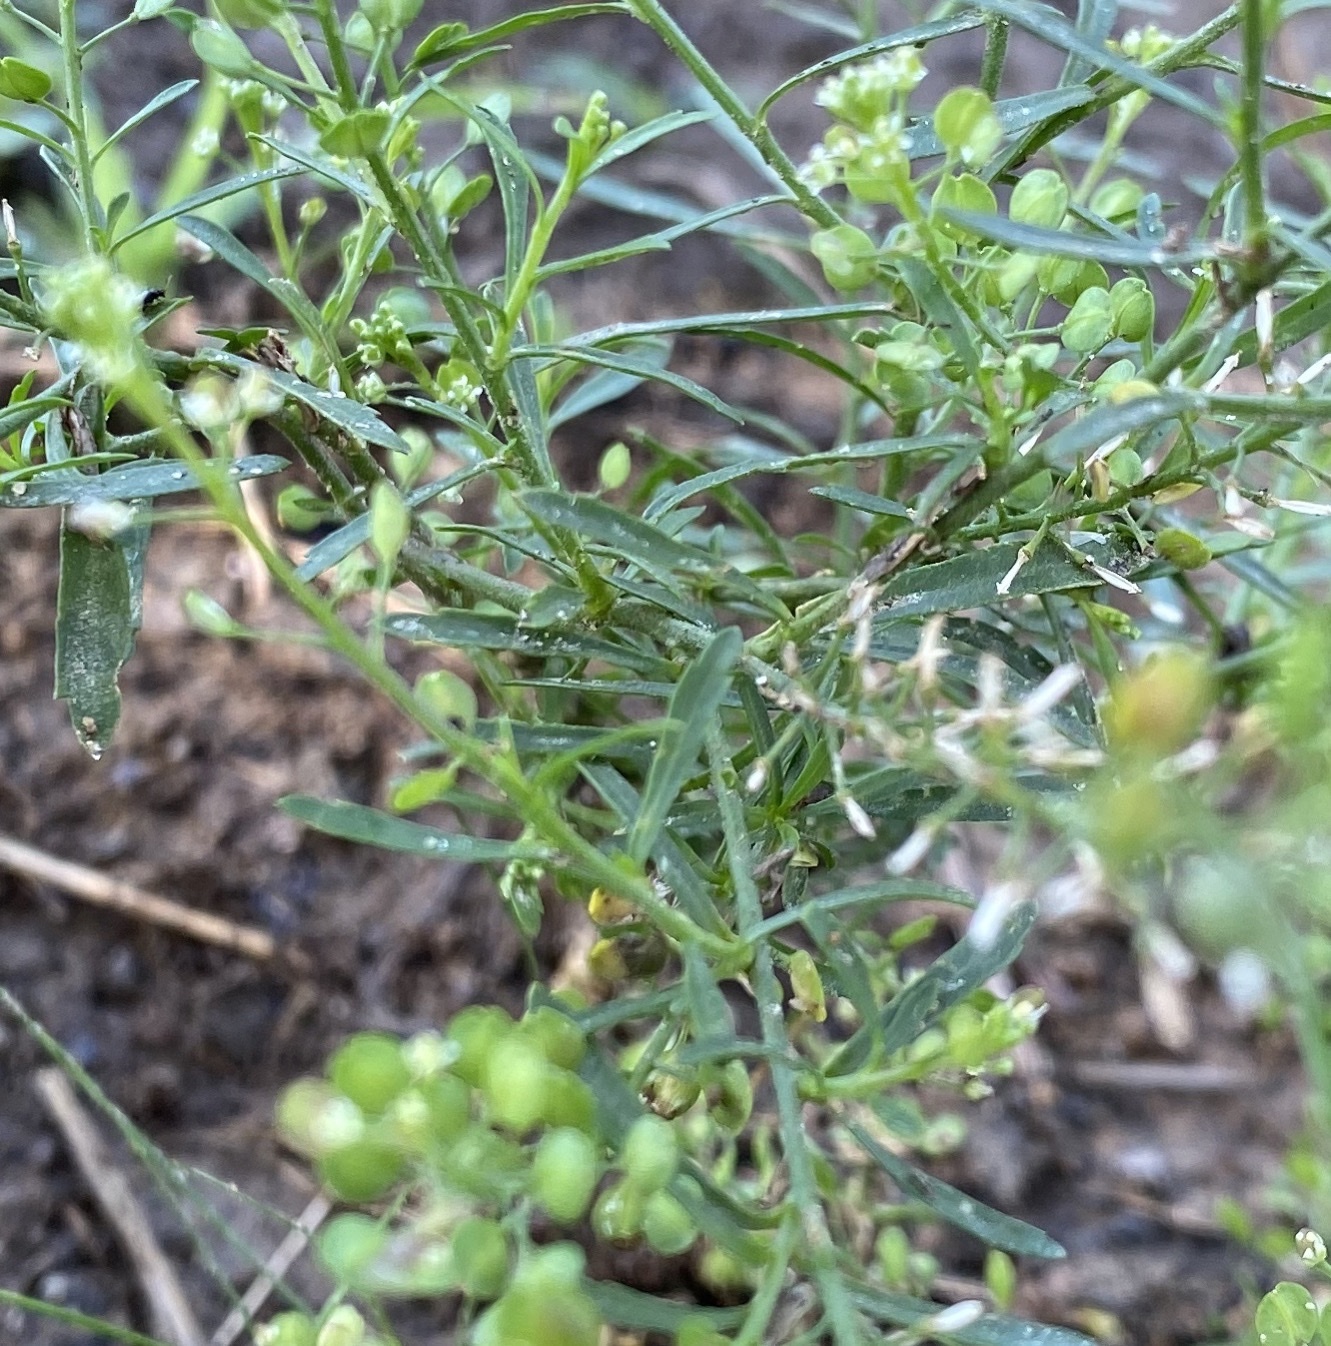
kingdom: Plantae
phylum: Tracheophyta
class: Magnoliopsida
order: Brassicales
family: Brassicaceae
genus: Lepidium
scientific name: Lepidium virginicum
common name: Least pepperwort
